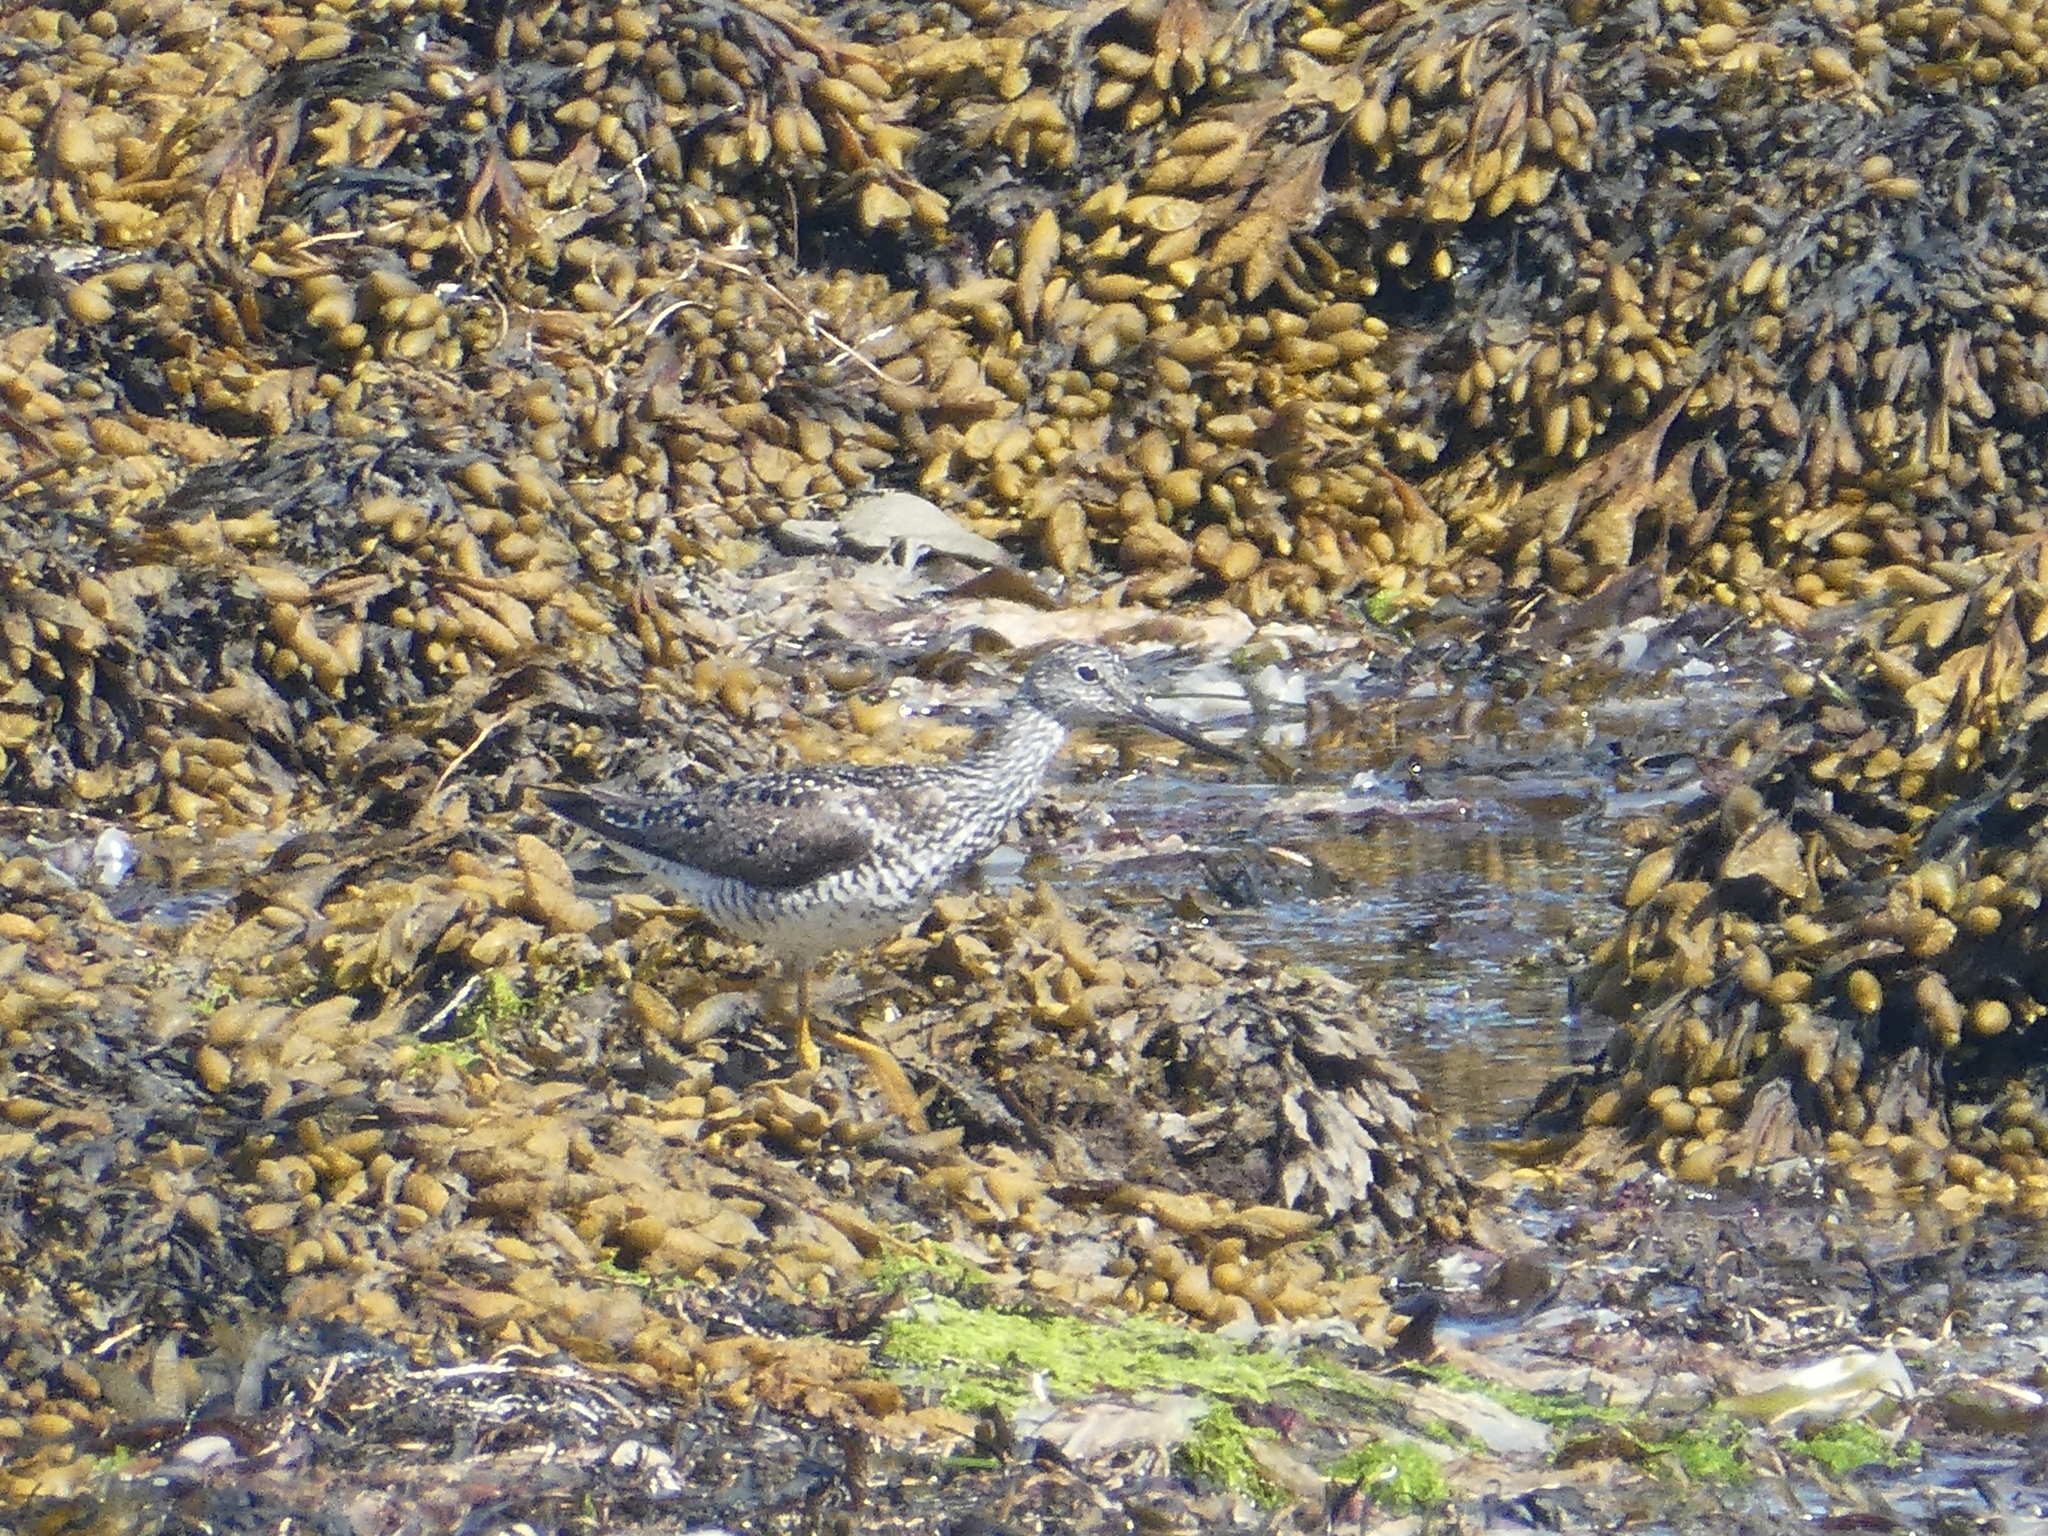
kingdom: Animalia
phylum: Chordata
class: Aves
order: Charadriiformes
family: Scolopacidae
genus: Tringa
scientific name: Tringa melanoleuca
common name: Greater yellowlegs
